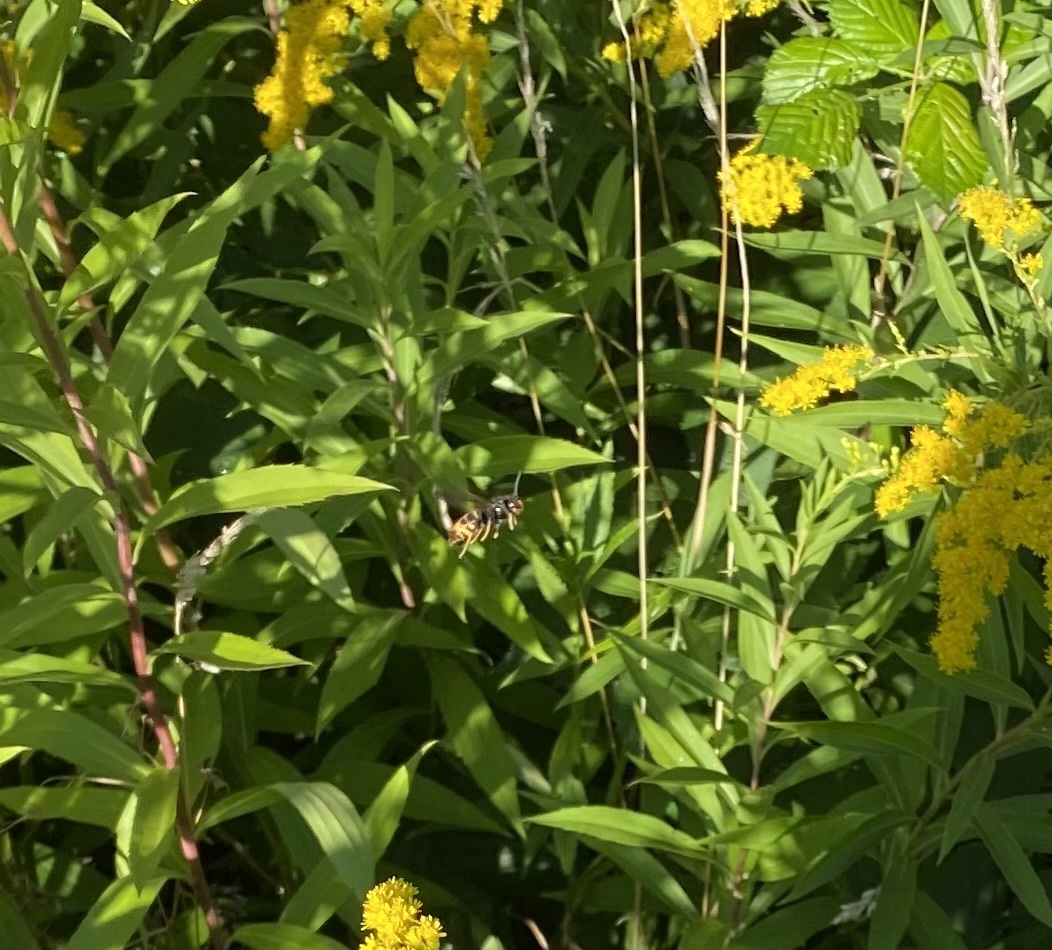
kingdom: Animalia
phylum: Arthropoda
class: Insecta
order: Hymenoptera
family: Vespidae
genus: Vespa
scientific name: Vespa velutina
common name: Asian hornet
